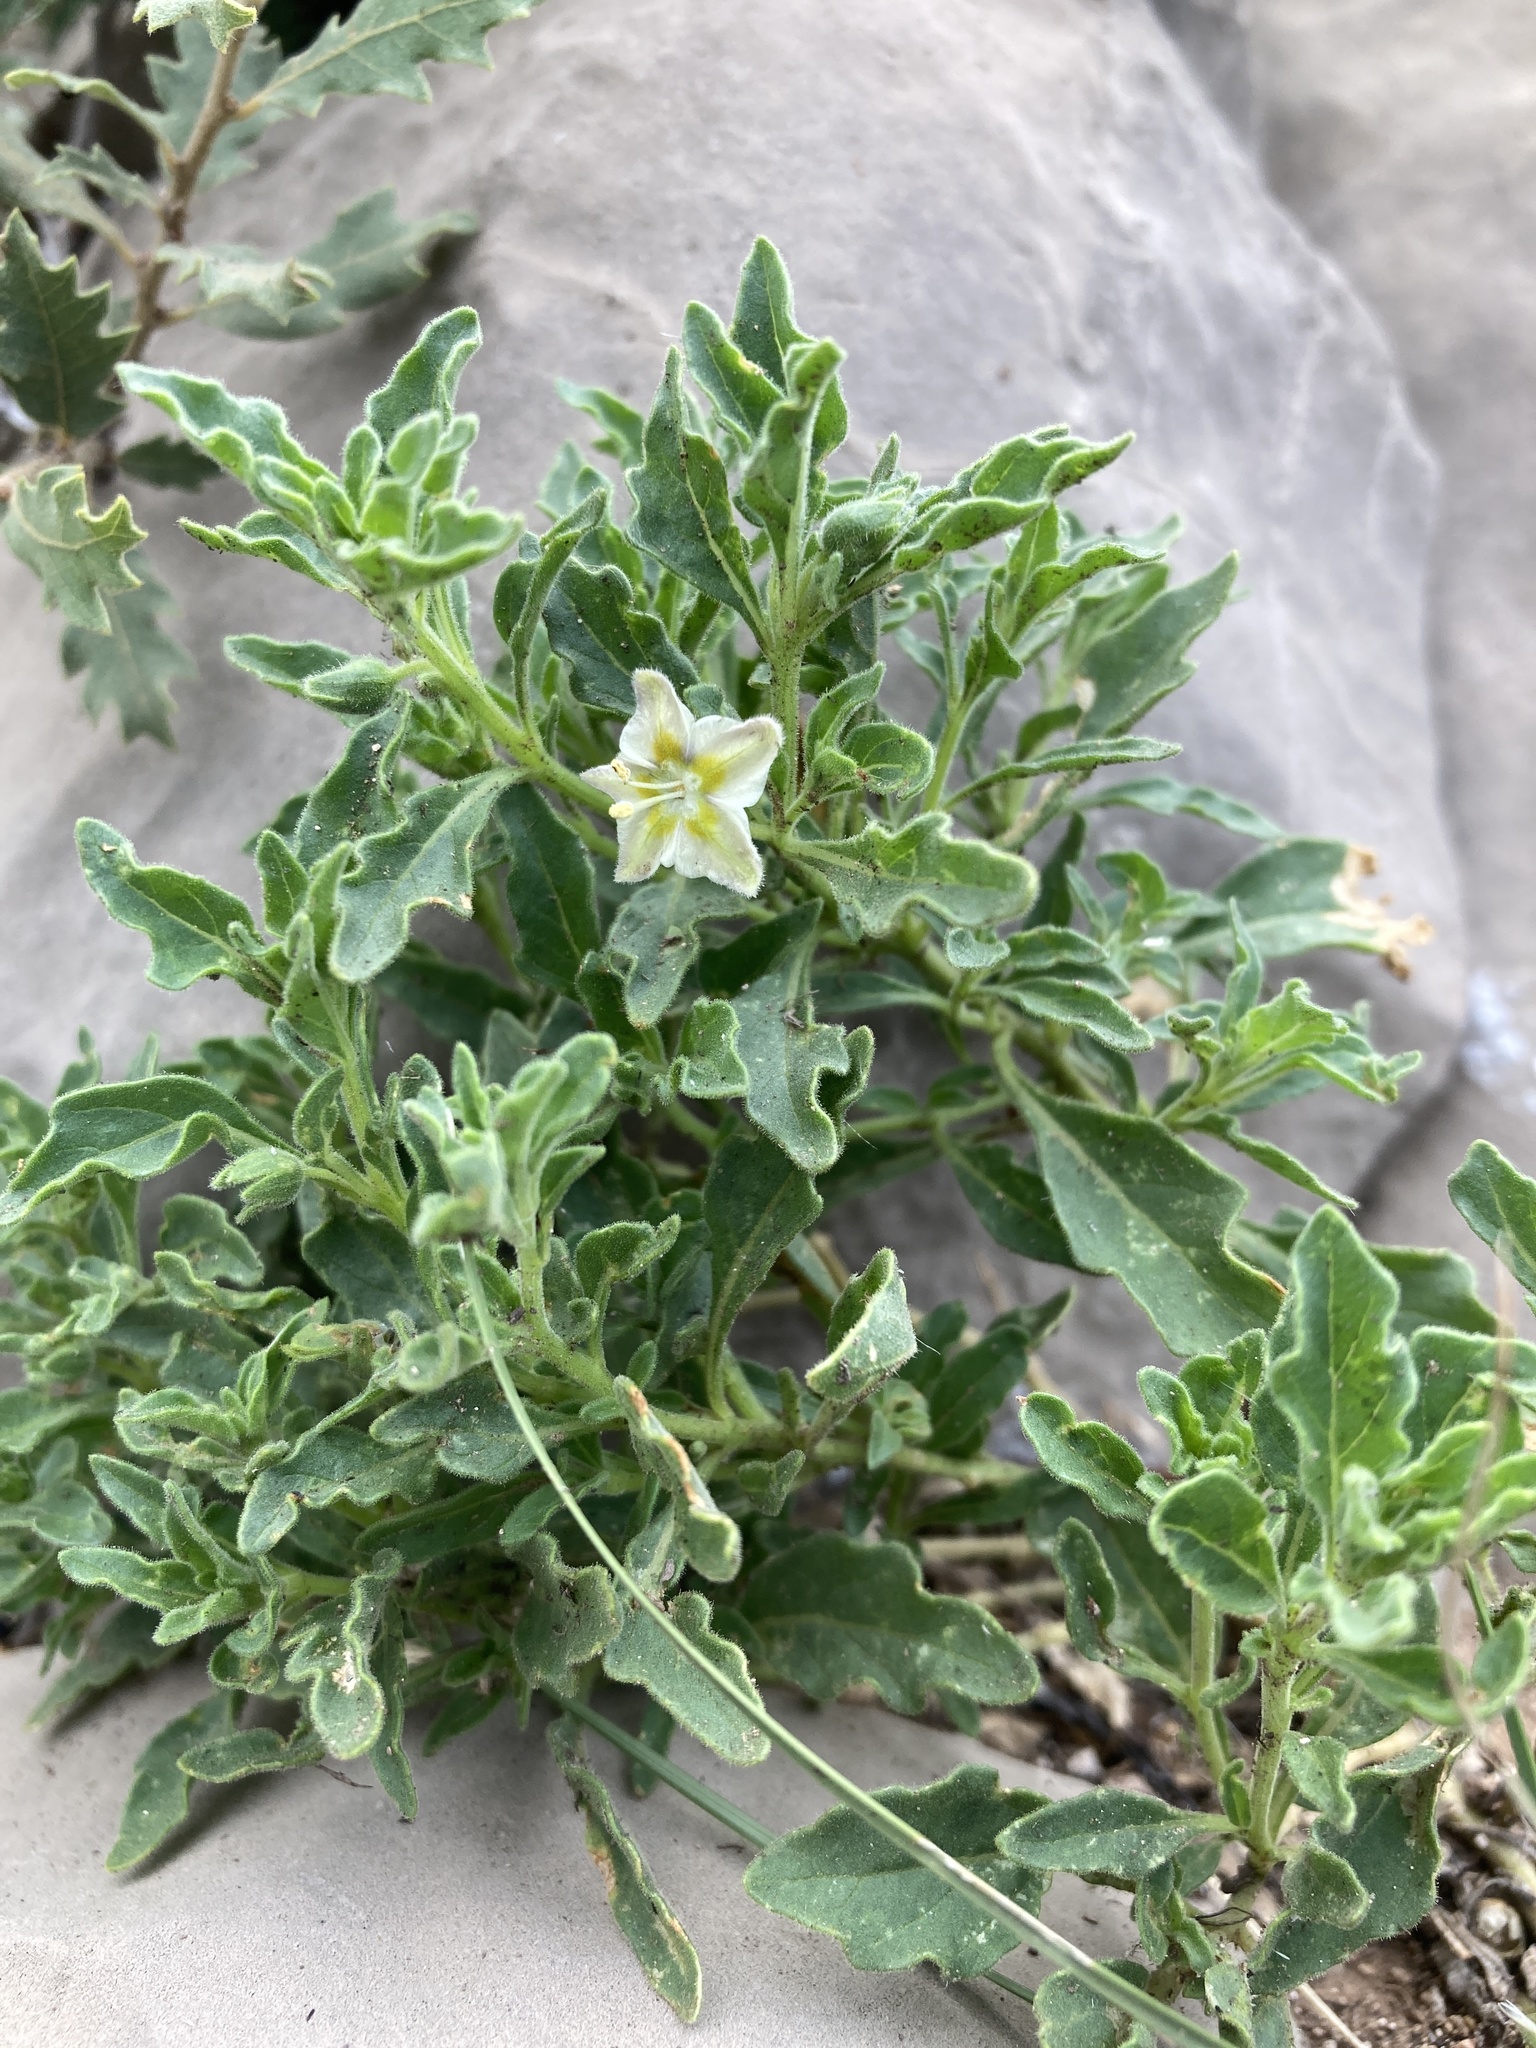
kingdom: Plantae
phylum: Tracheophyta
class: Magnoliopsida
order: Solanales
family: Solanaceae
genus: Chamaesaracha
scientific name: Chamaesaracha sordida
